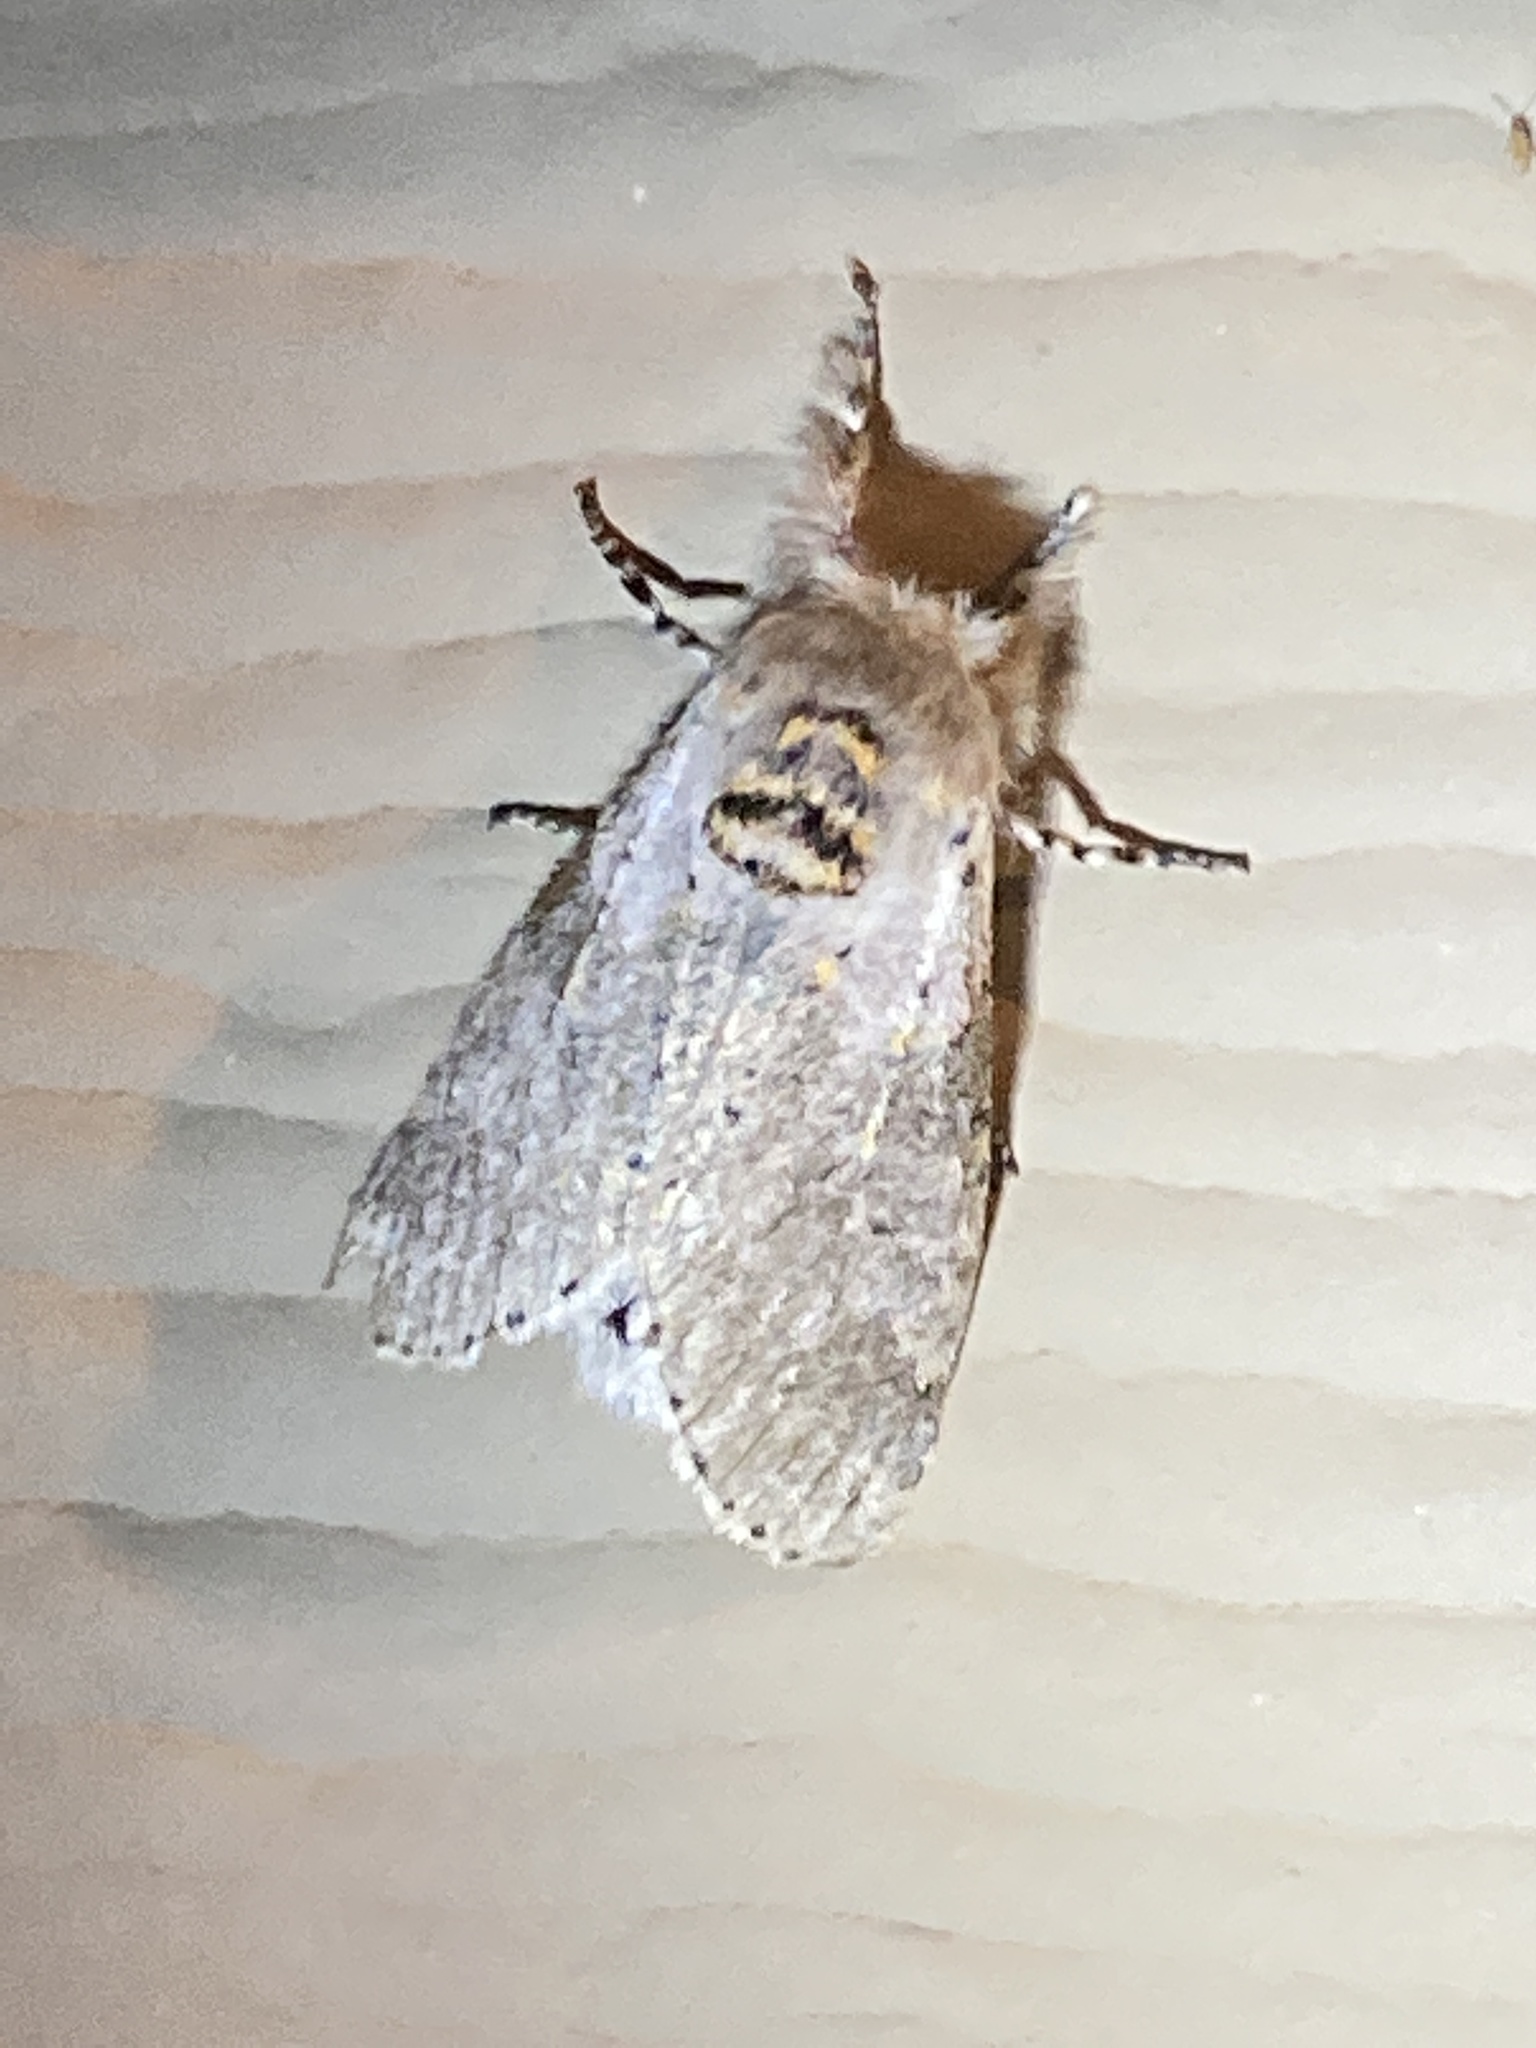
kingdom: Animalia
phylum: Arthropoda
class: Insecta
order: Lepidoptera
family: Notodontidae
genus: Furcula
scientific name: Furcula cinerea
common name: Gray furcula
